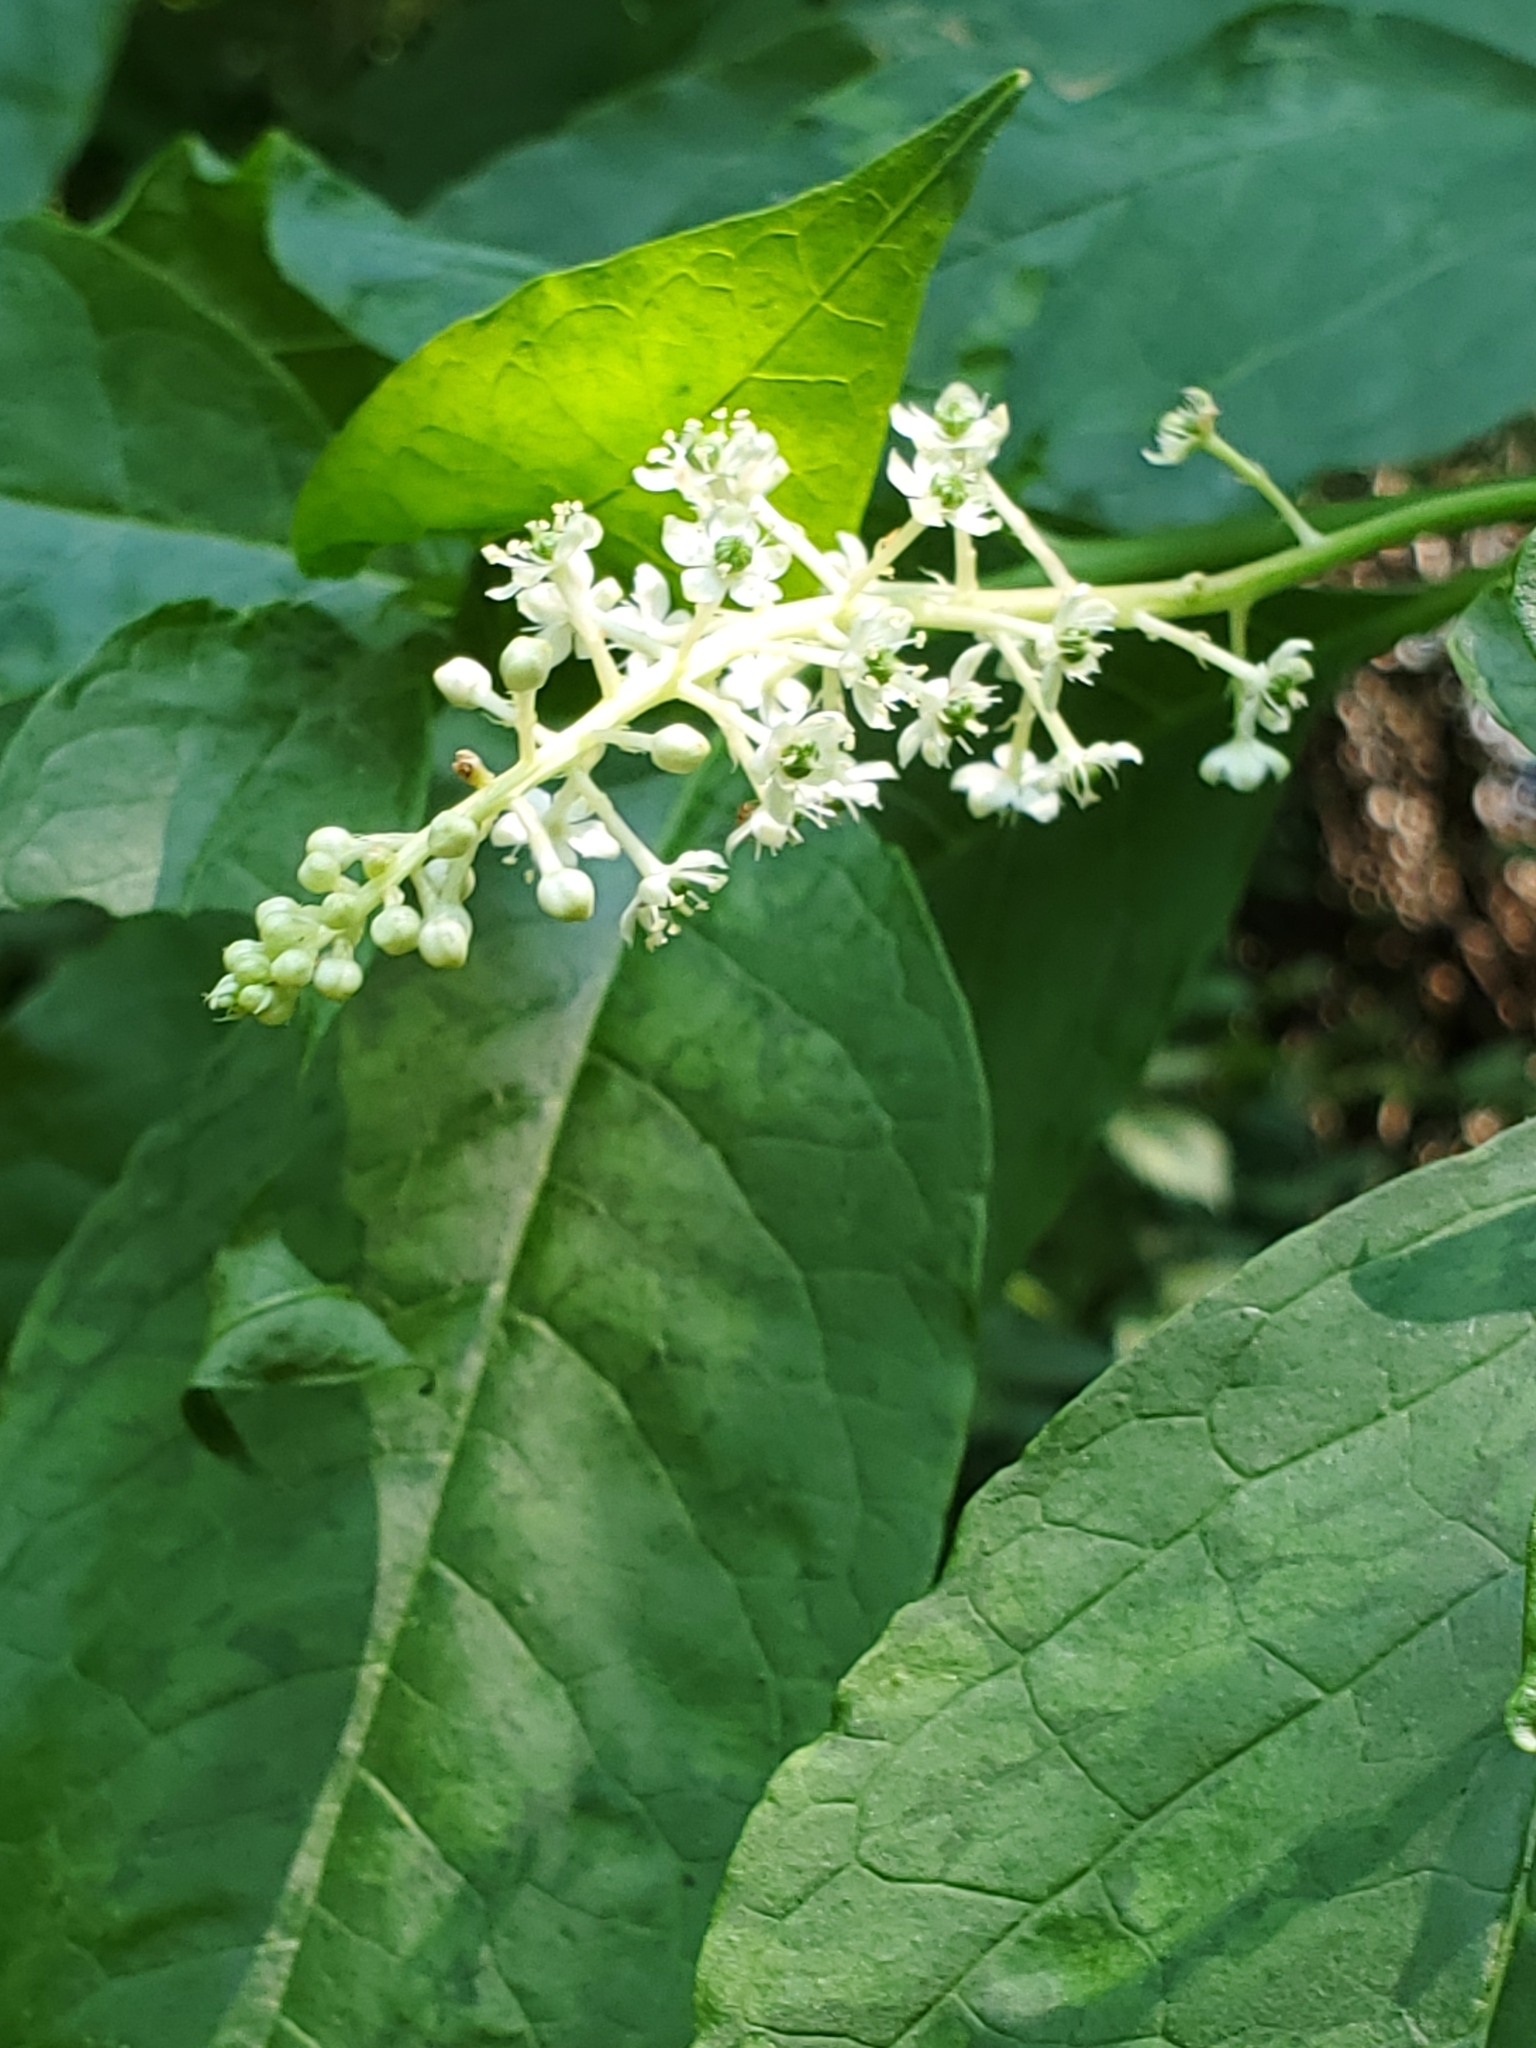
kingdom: Plantae
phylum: Tracheophyta
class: Magnoliopsida
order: Caryophyllales
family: Phytolaccaceae
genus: Phytolacca
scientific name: Phytolacca americana
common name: American pokeweed
